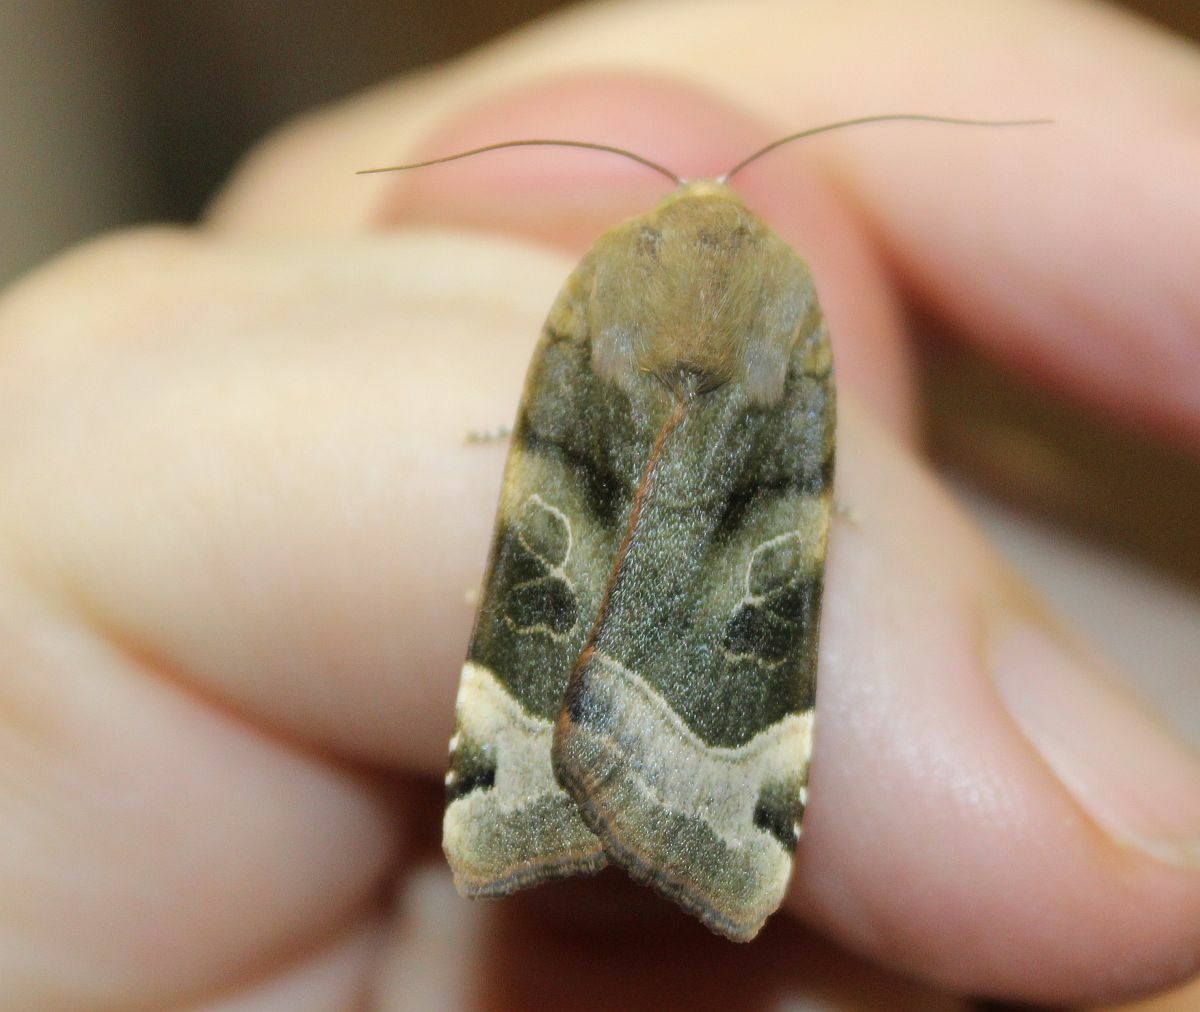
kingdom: Animalia
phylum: Arthropoda
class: Insecta
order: Lepidoptera
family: Noctuidae
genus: Noctua
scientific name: Noctua fimbriata
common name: Broad-bordered yellow underwing
